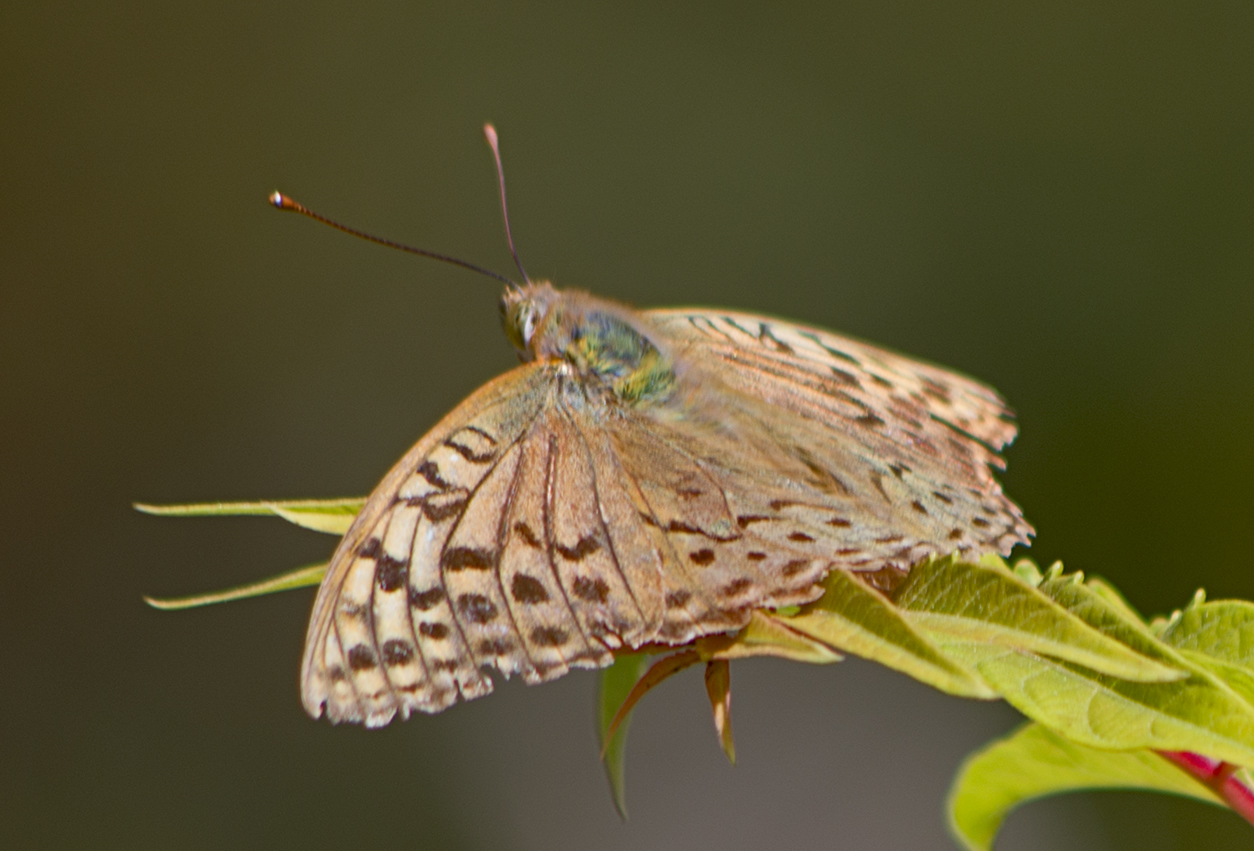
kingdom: Animalia
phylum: Arthropoda
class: Insecta
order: Lepidoptera
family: Nymphalidae
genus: Damora
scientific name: Damora pandora
